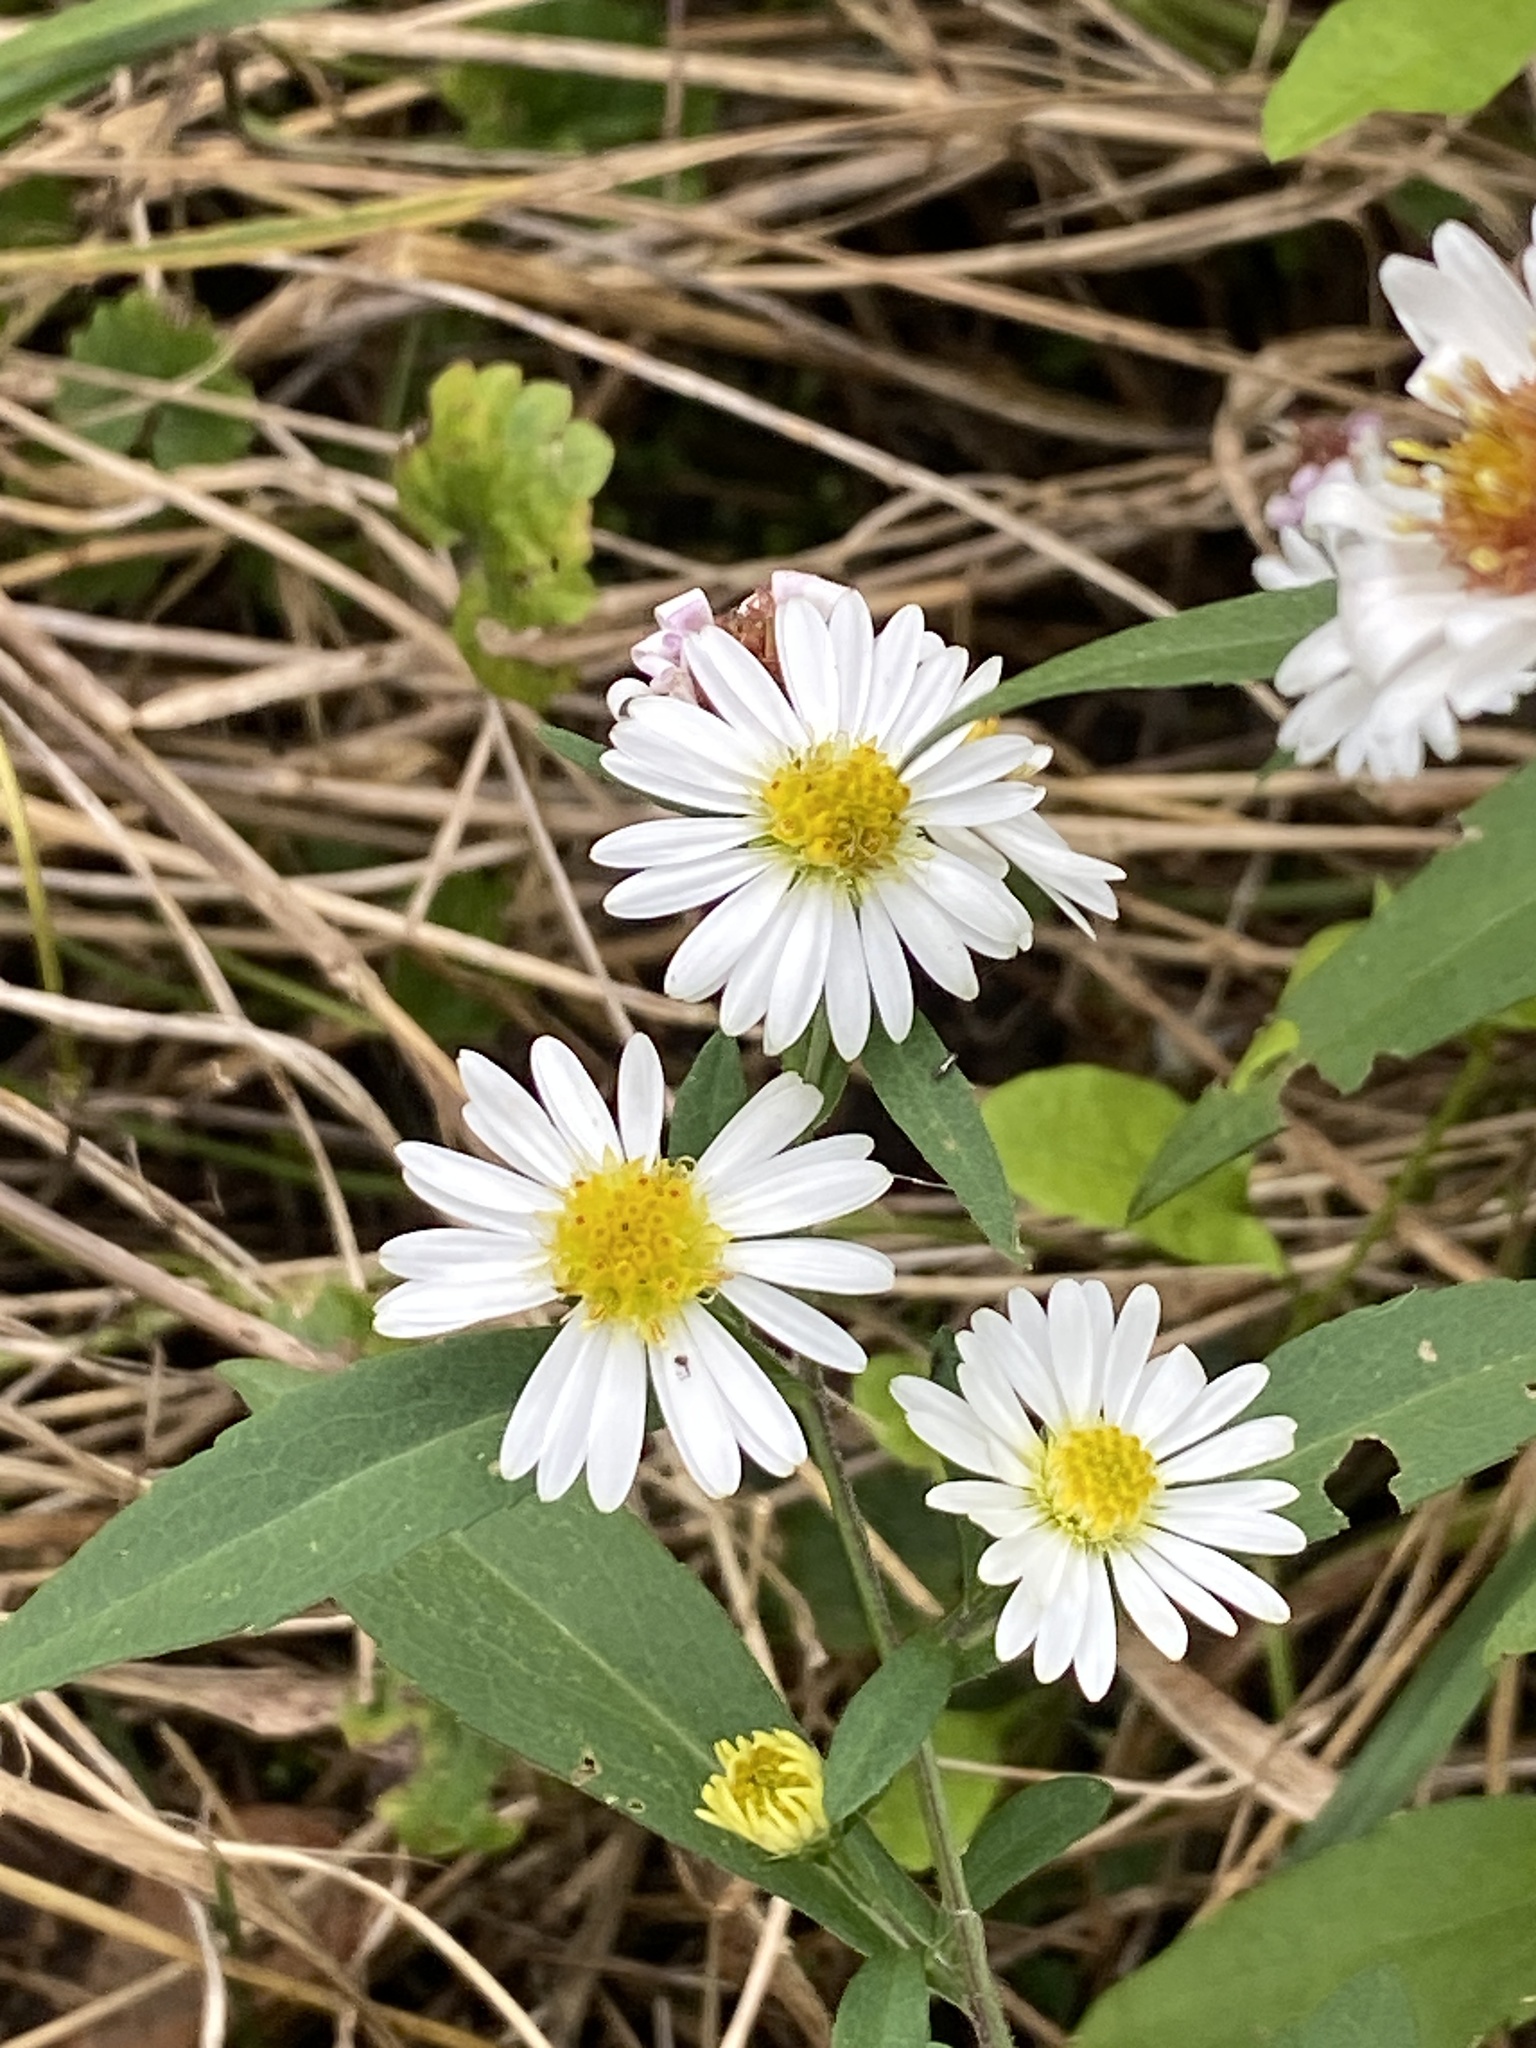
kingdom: Plantae
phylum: Tracheophyta
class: Magnoliopsida
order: Asterales
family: Asteraceae
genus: Symphyotrichum
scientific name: Symphyotrichum lanceolatum
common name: Panicled aster
